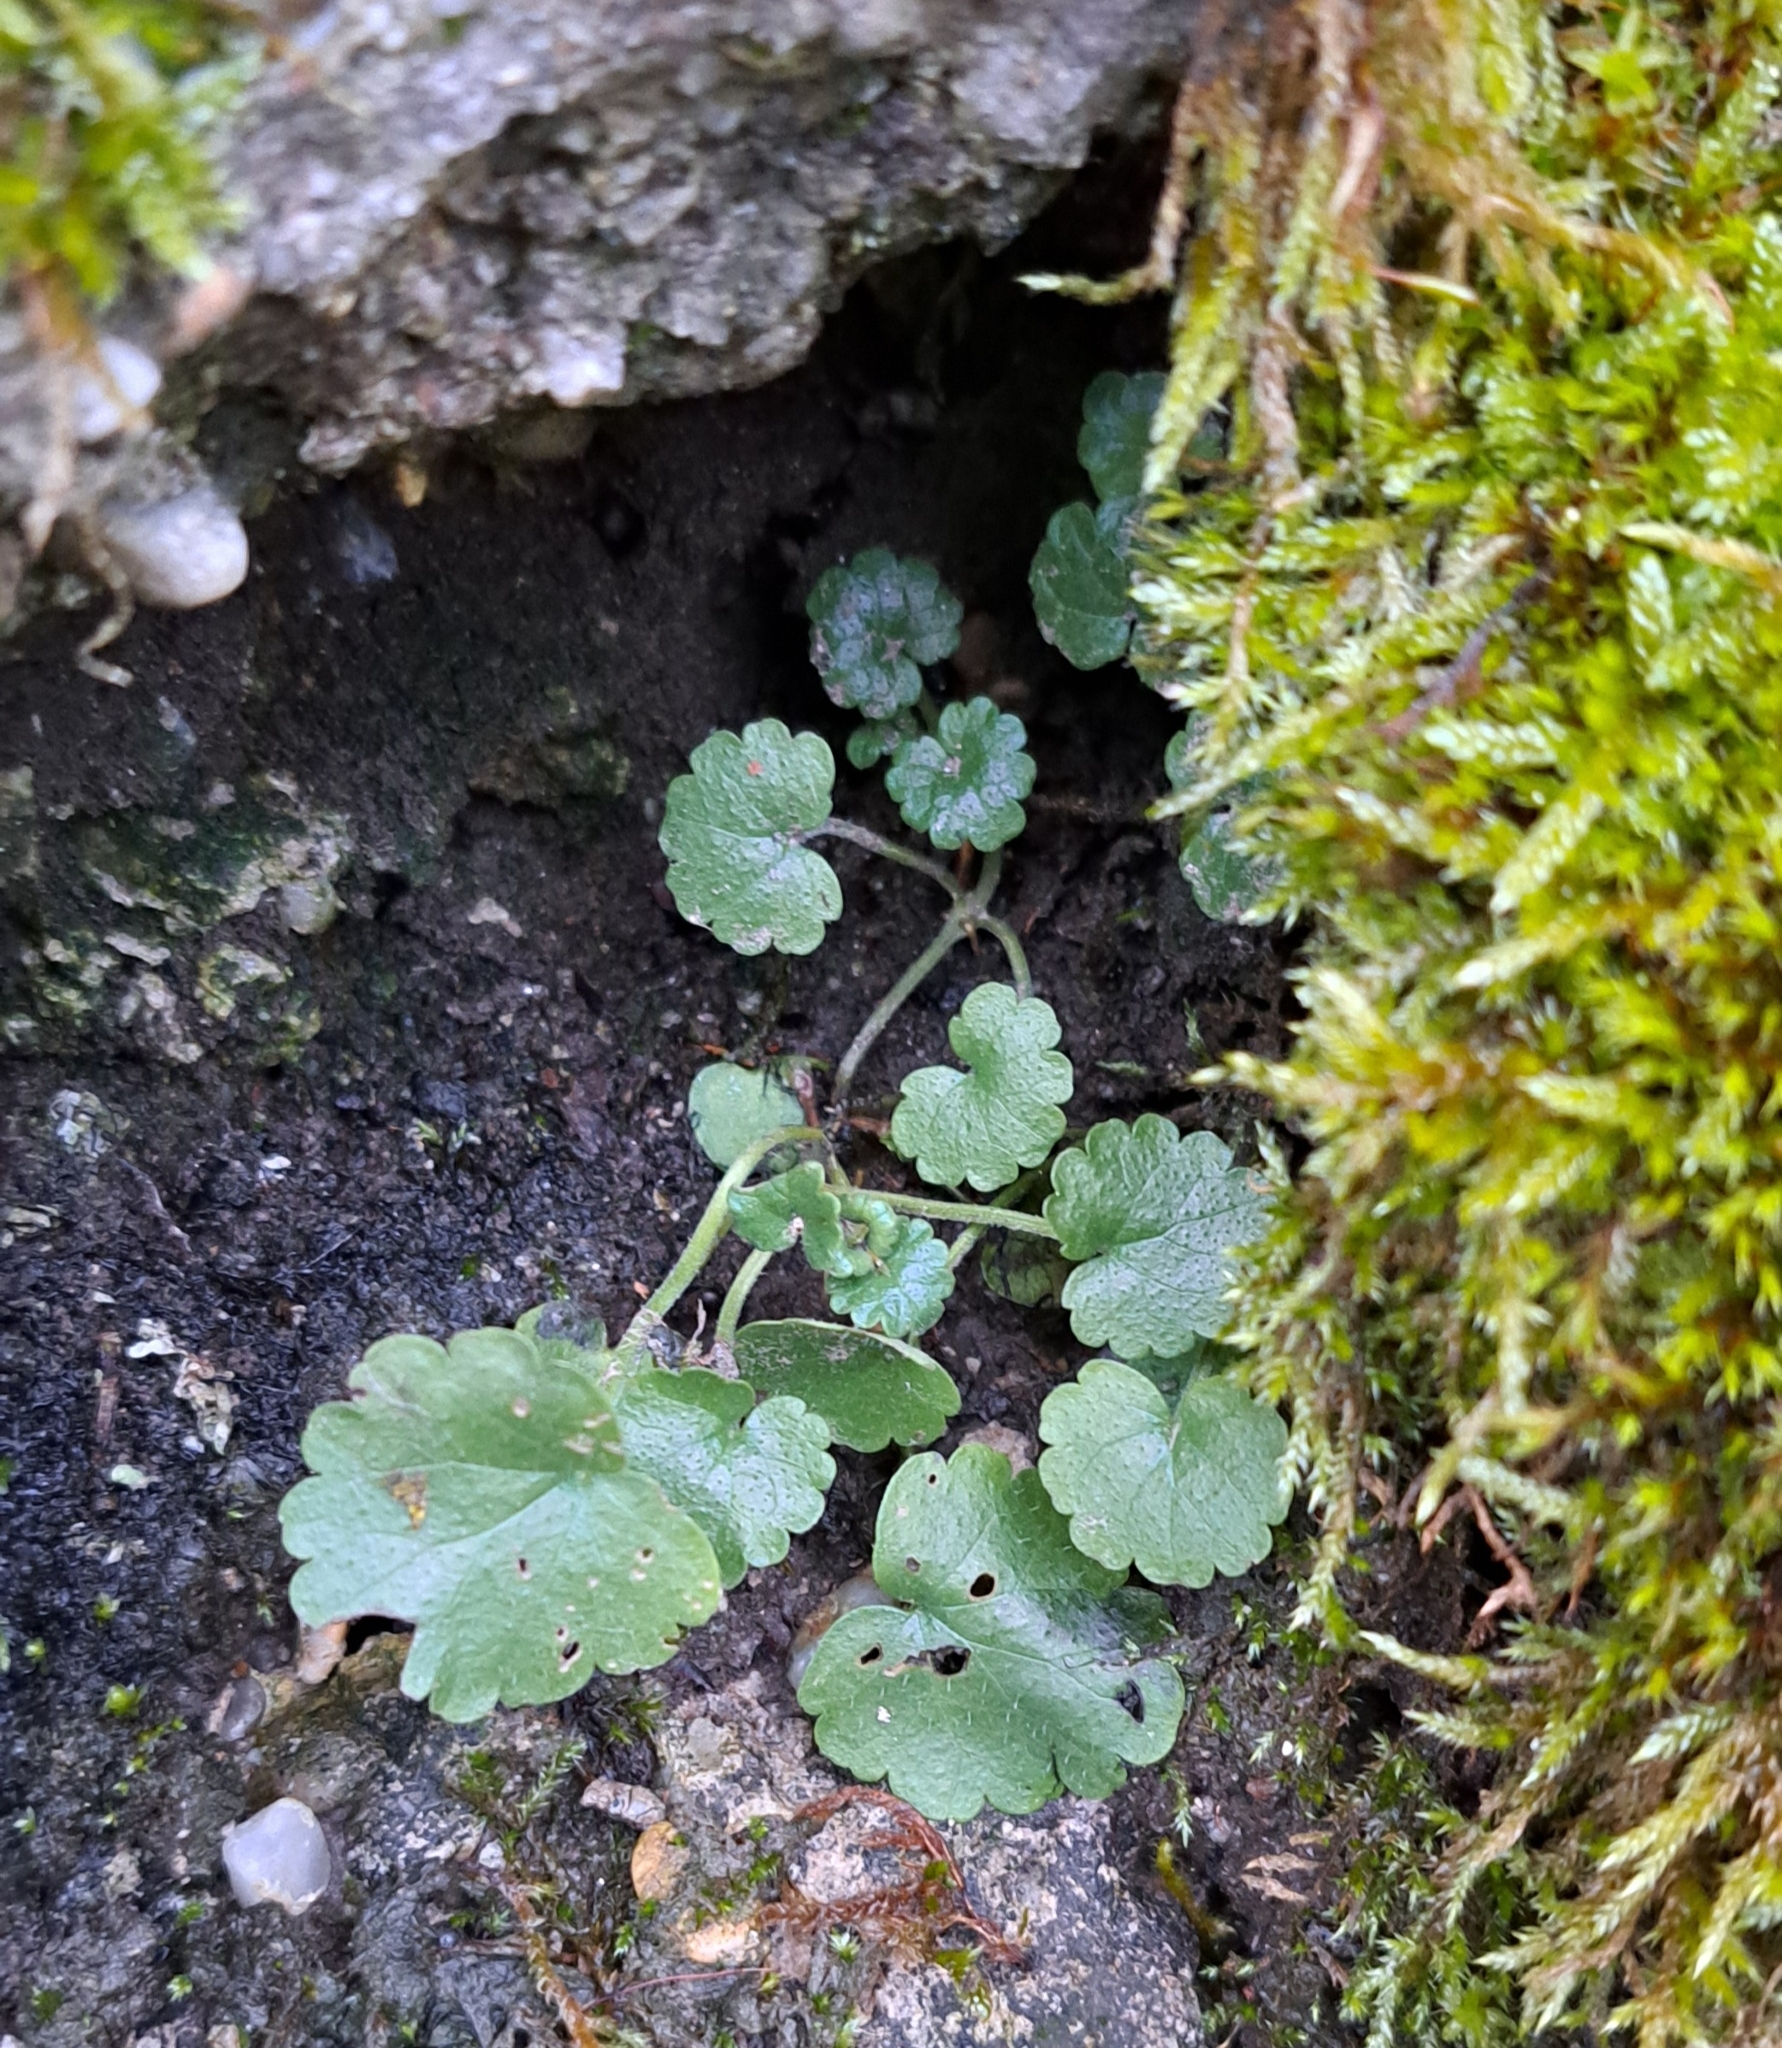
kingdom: Plantae
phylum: Tracheophyta
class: Magnoliopsida
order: Lamiales
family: Lamiaceae
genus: Glechoma
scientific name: Glechoma hederacea
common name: Ground ivy
